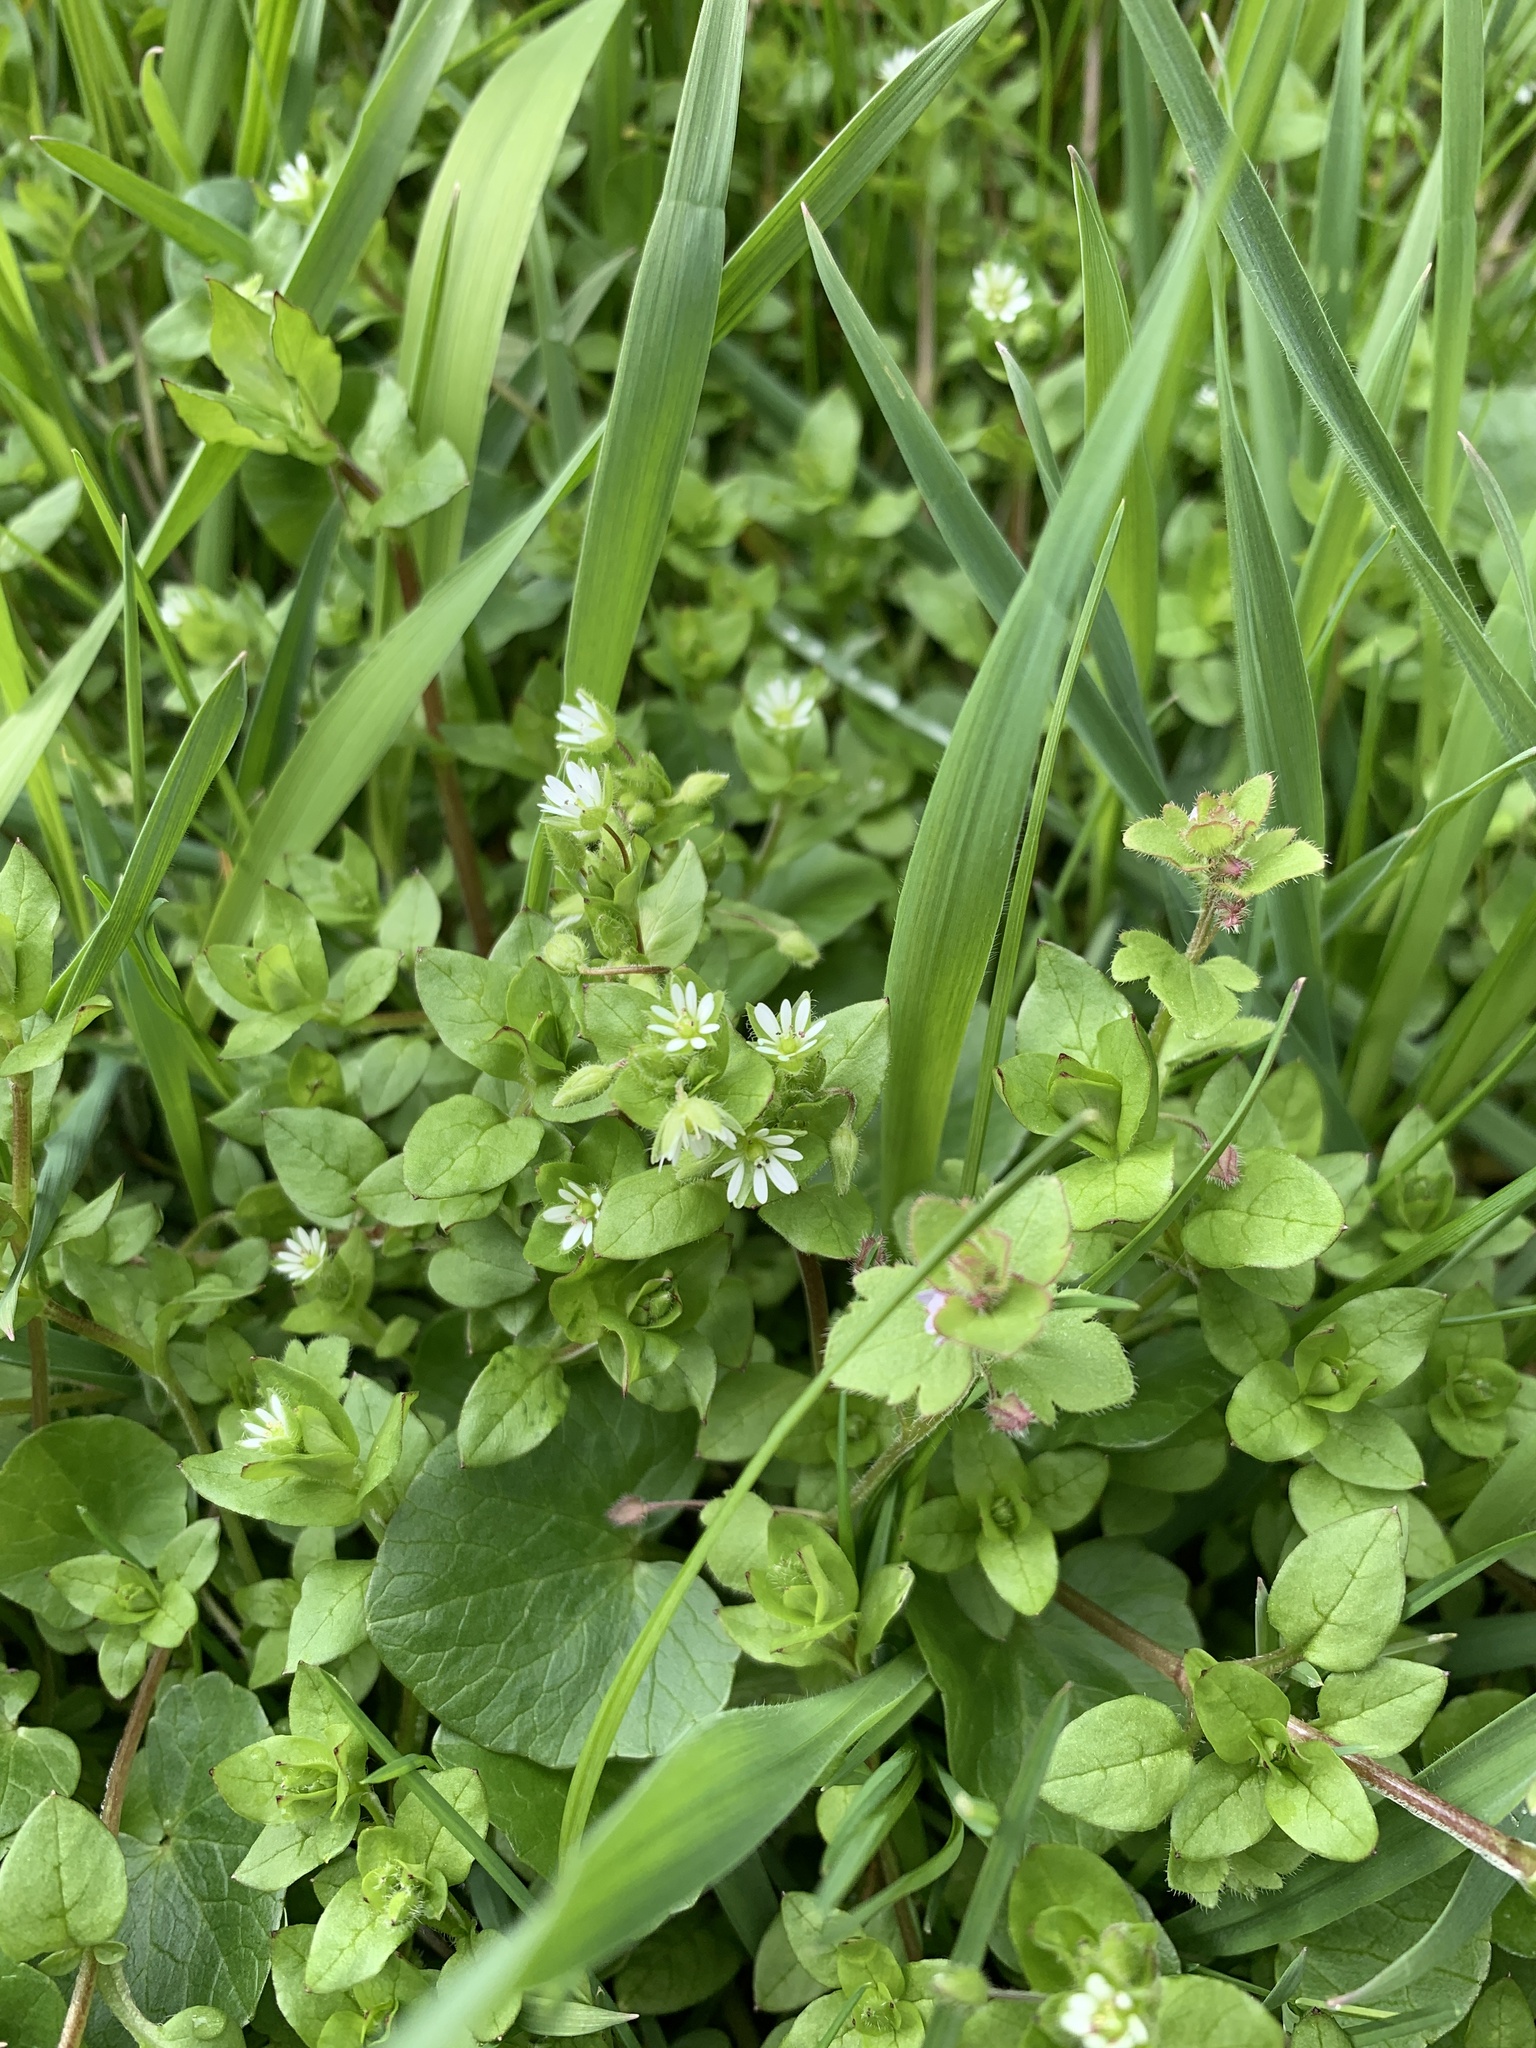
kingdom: Plantae
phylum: Tracheophyta
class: Magnoliopsida
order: Caryophyllales
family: Caryophyllaceae
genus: Stellaria
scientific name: Stellaria media
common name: Common chickweed
